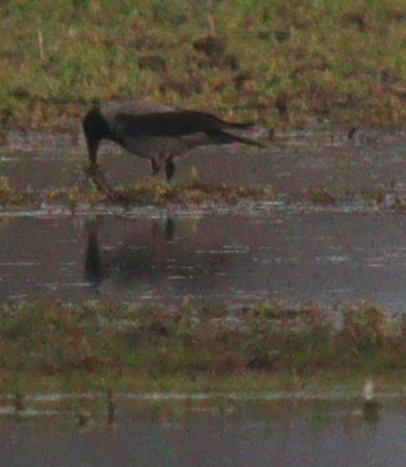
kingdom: Animalia
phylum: Chordata
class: Aves
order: Passeriformes
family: Corvidae
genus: Corvus
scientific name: Corvus cornix
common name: Hooded crow
